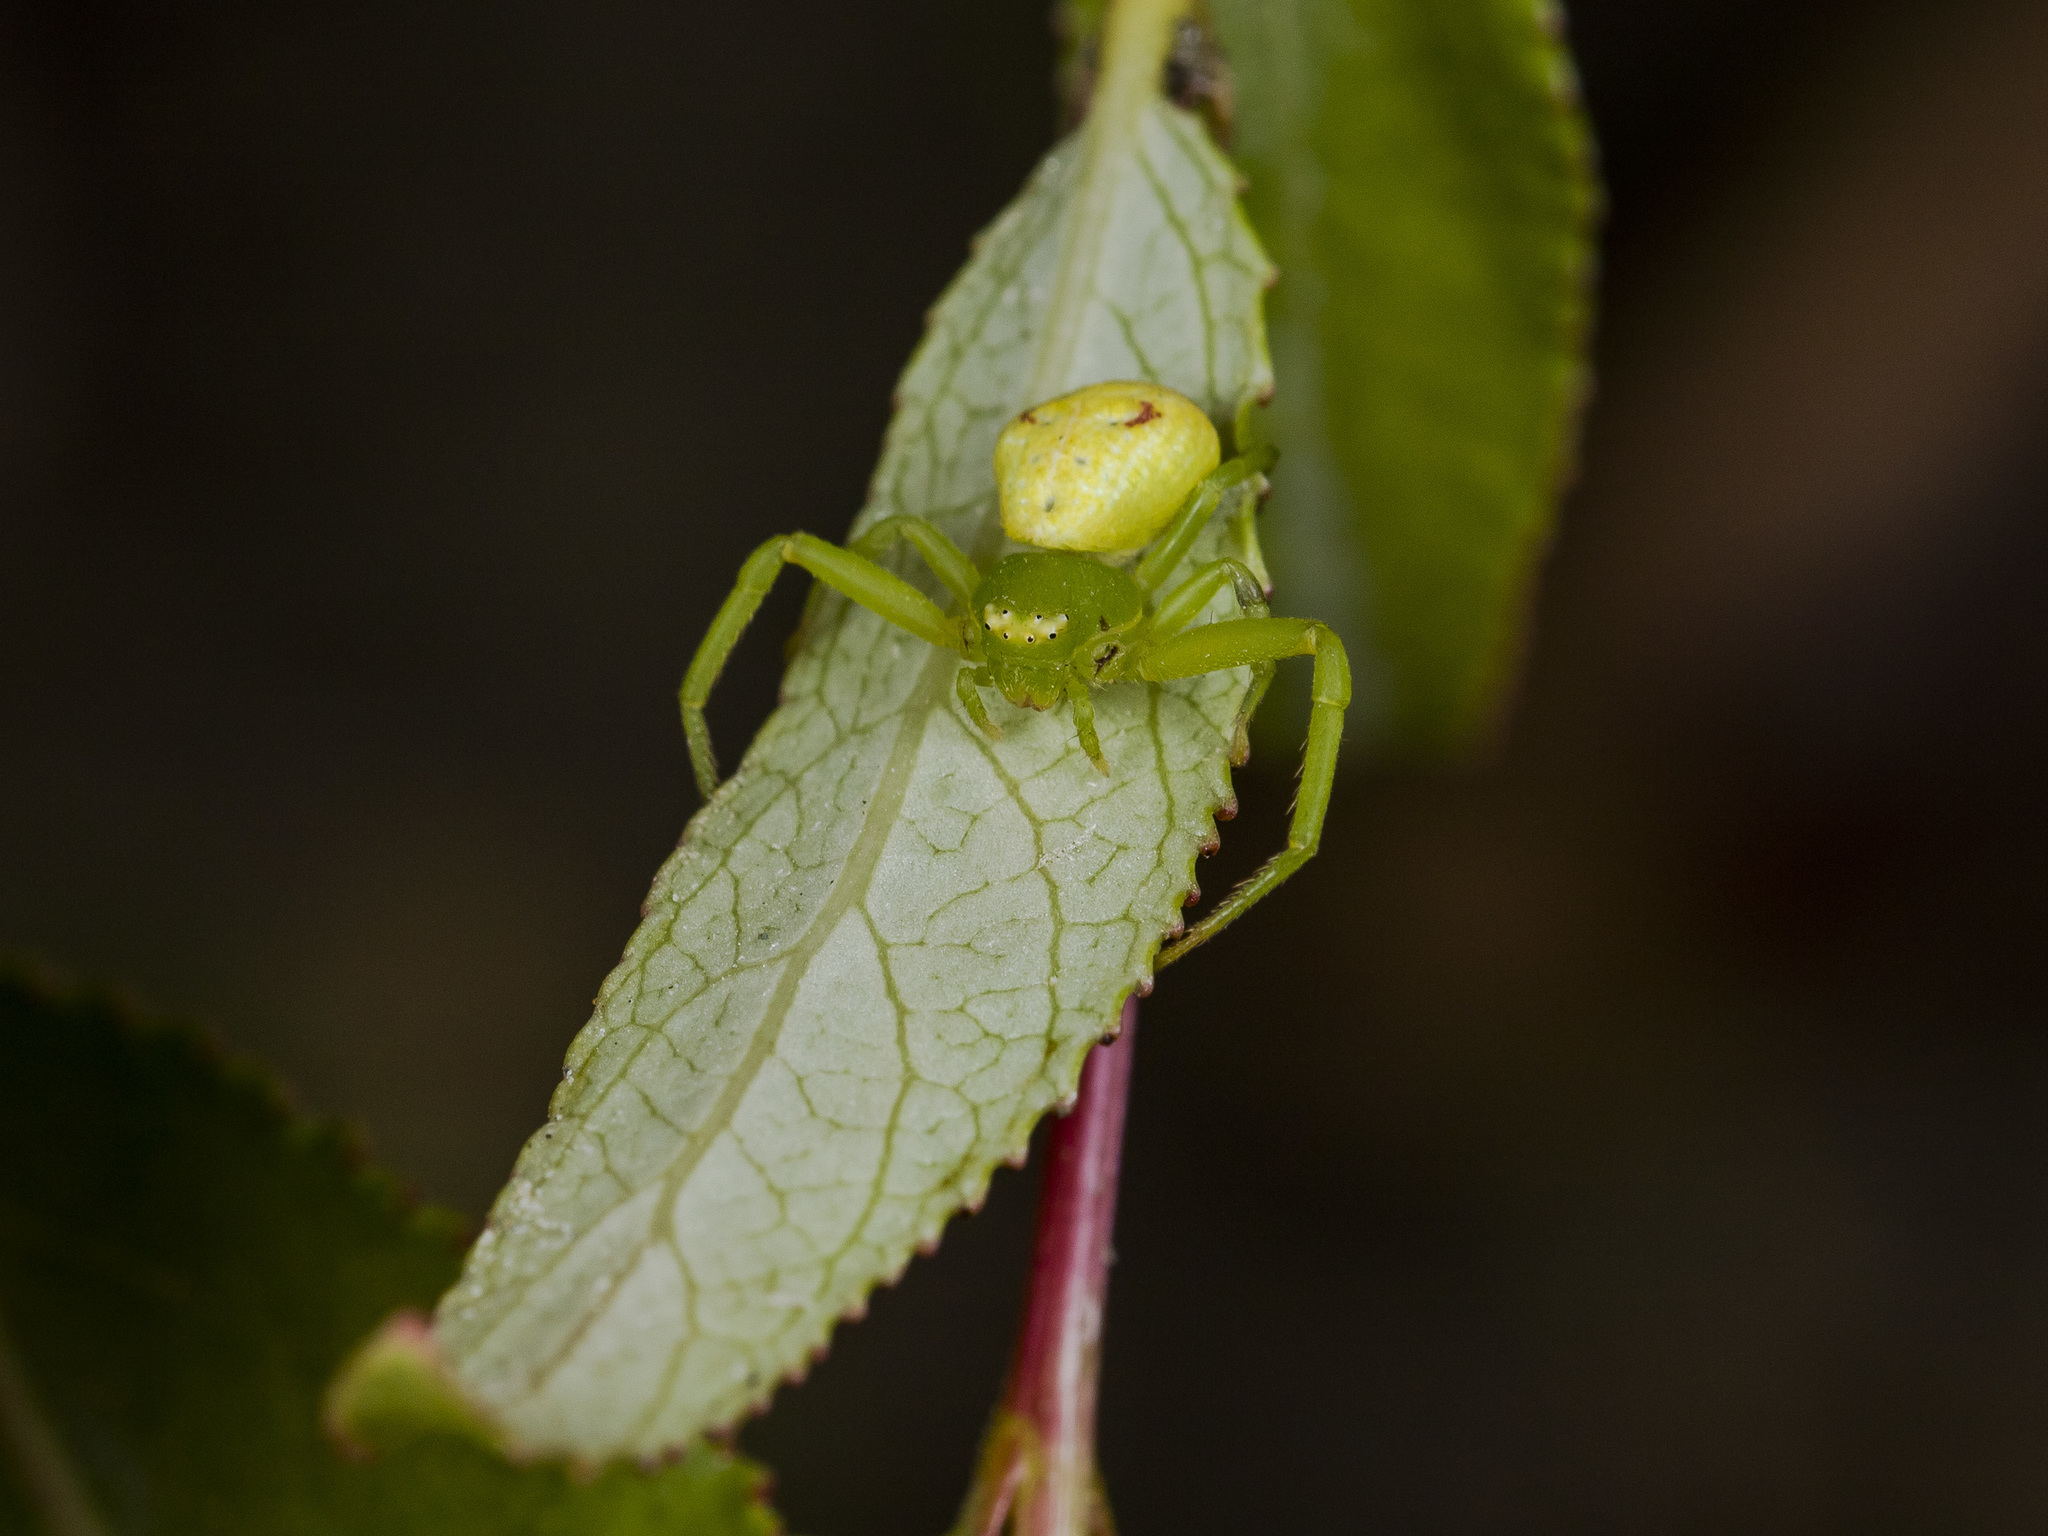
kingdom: Animalia
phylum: Arthropoda
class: Arachnida
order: Araneae
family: Thomisidae
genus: Ebrechtella
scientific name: Ebrechtella tricuspidata
